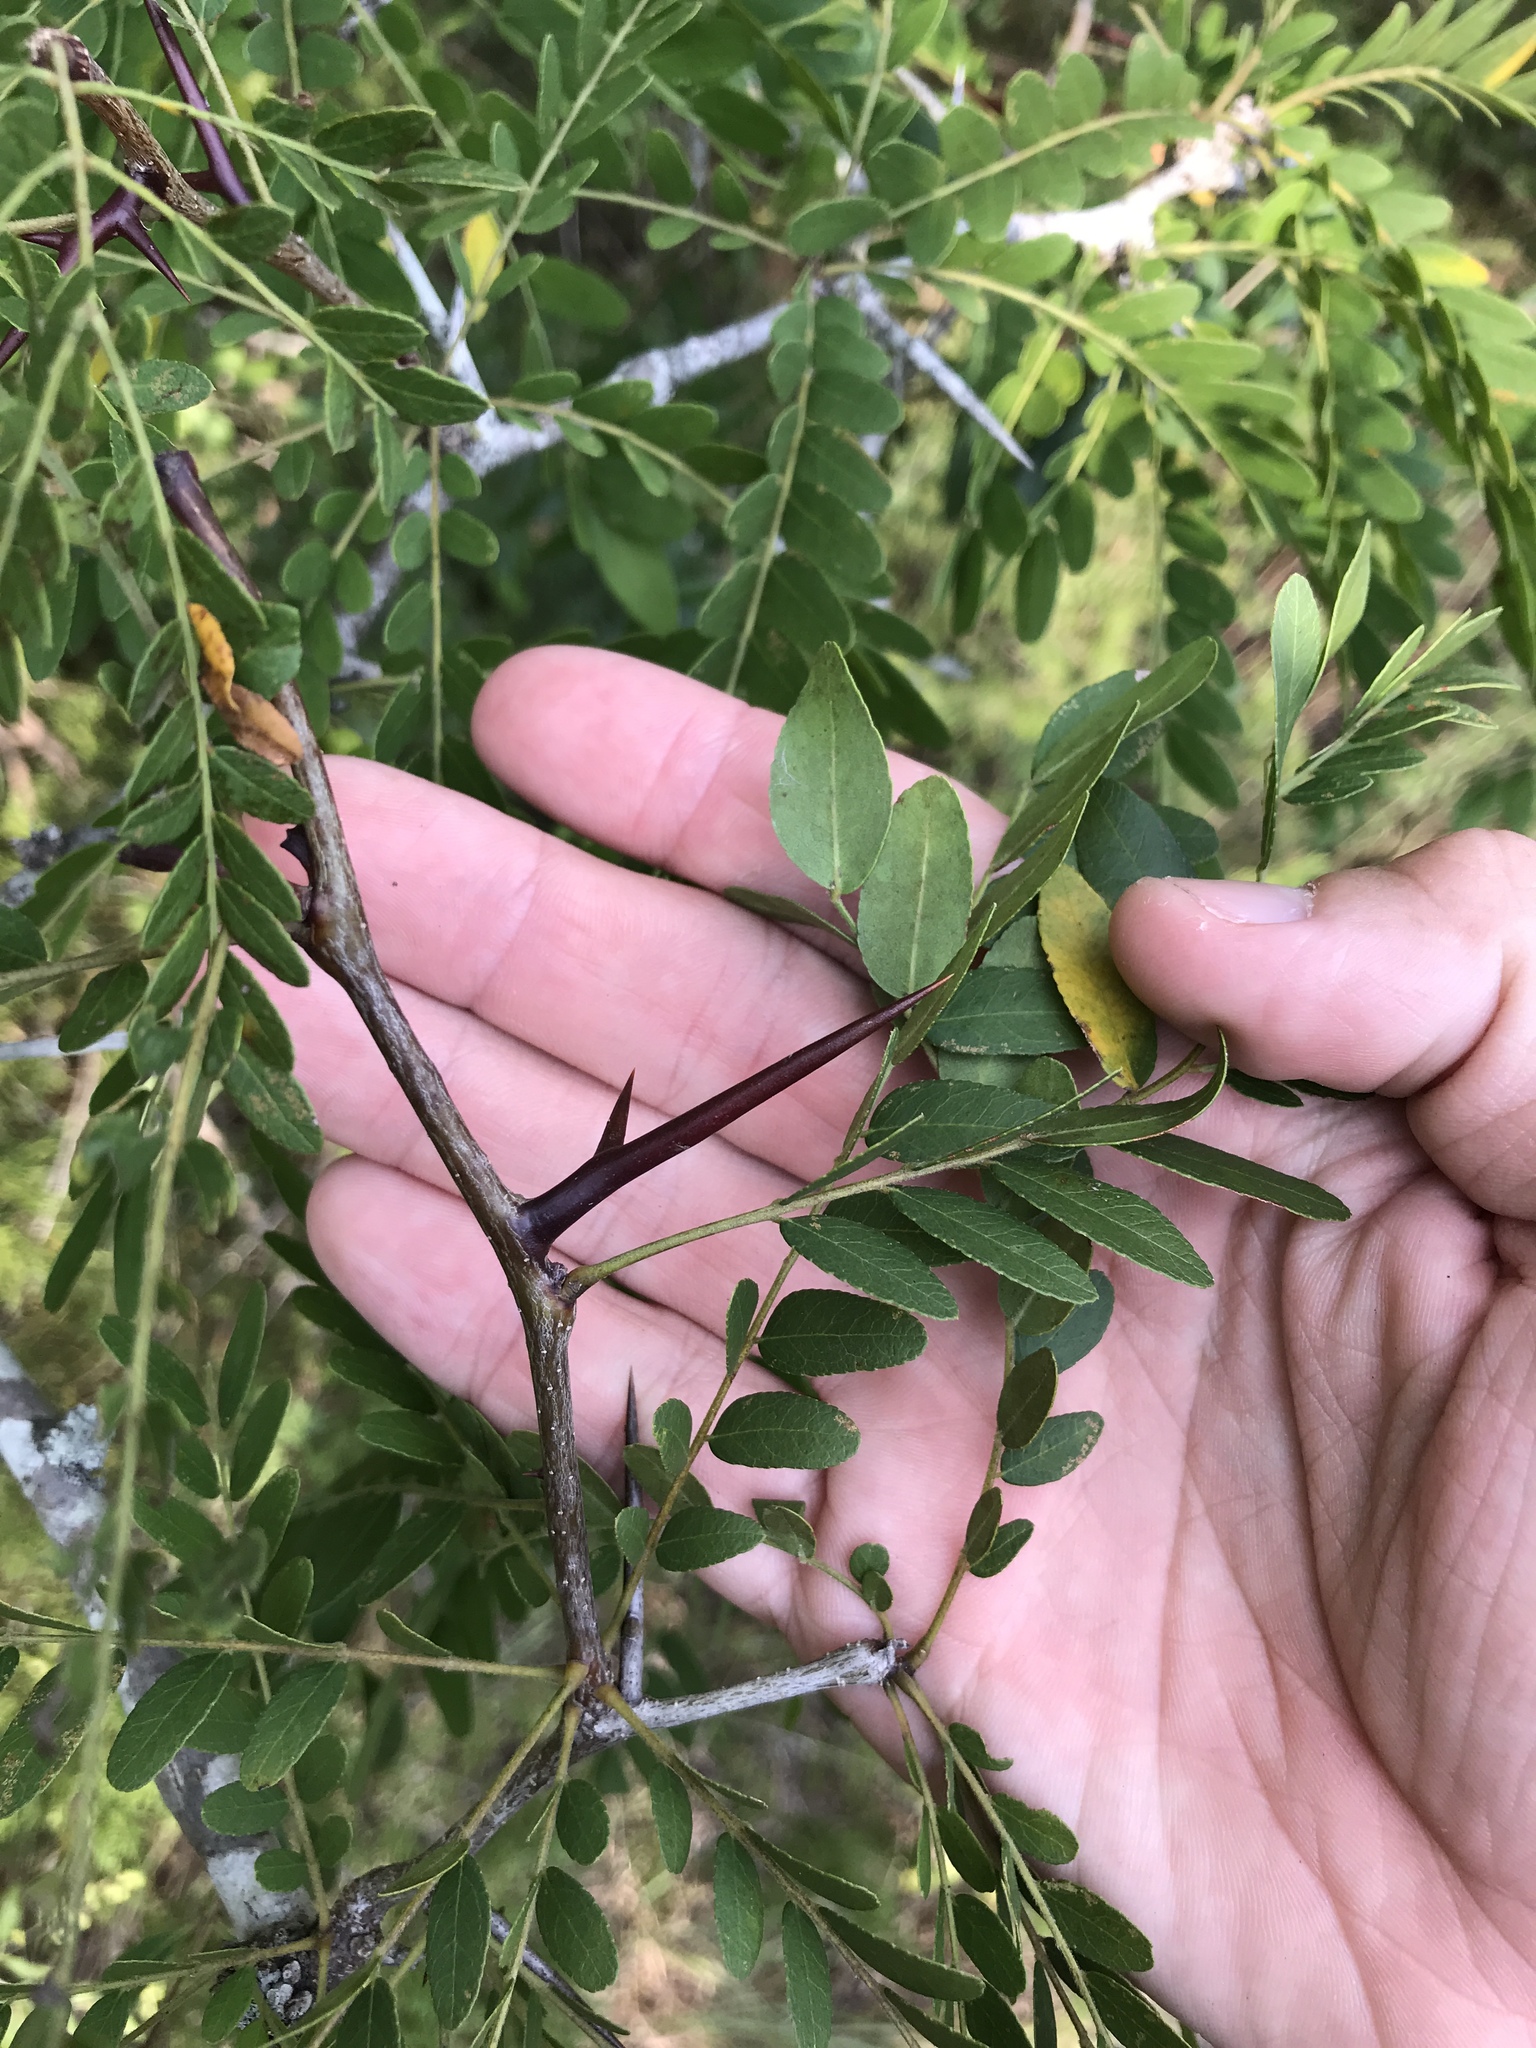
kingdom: Plantae
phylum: Tracheophyta
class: Magnoliopsida
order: Fabales
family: Fabaceae
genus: Gleditsia
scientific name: Gleditsia triacanthos
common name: Common honeylocust
